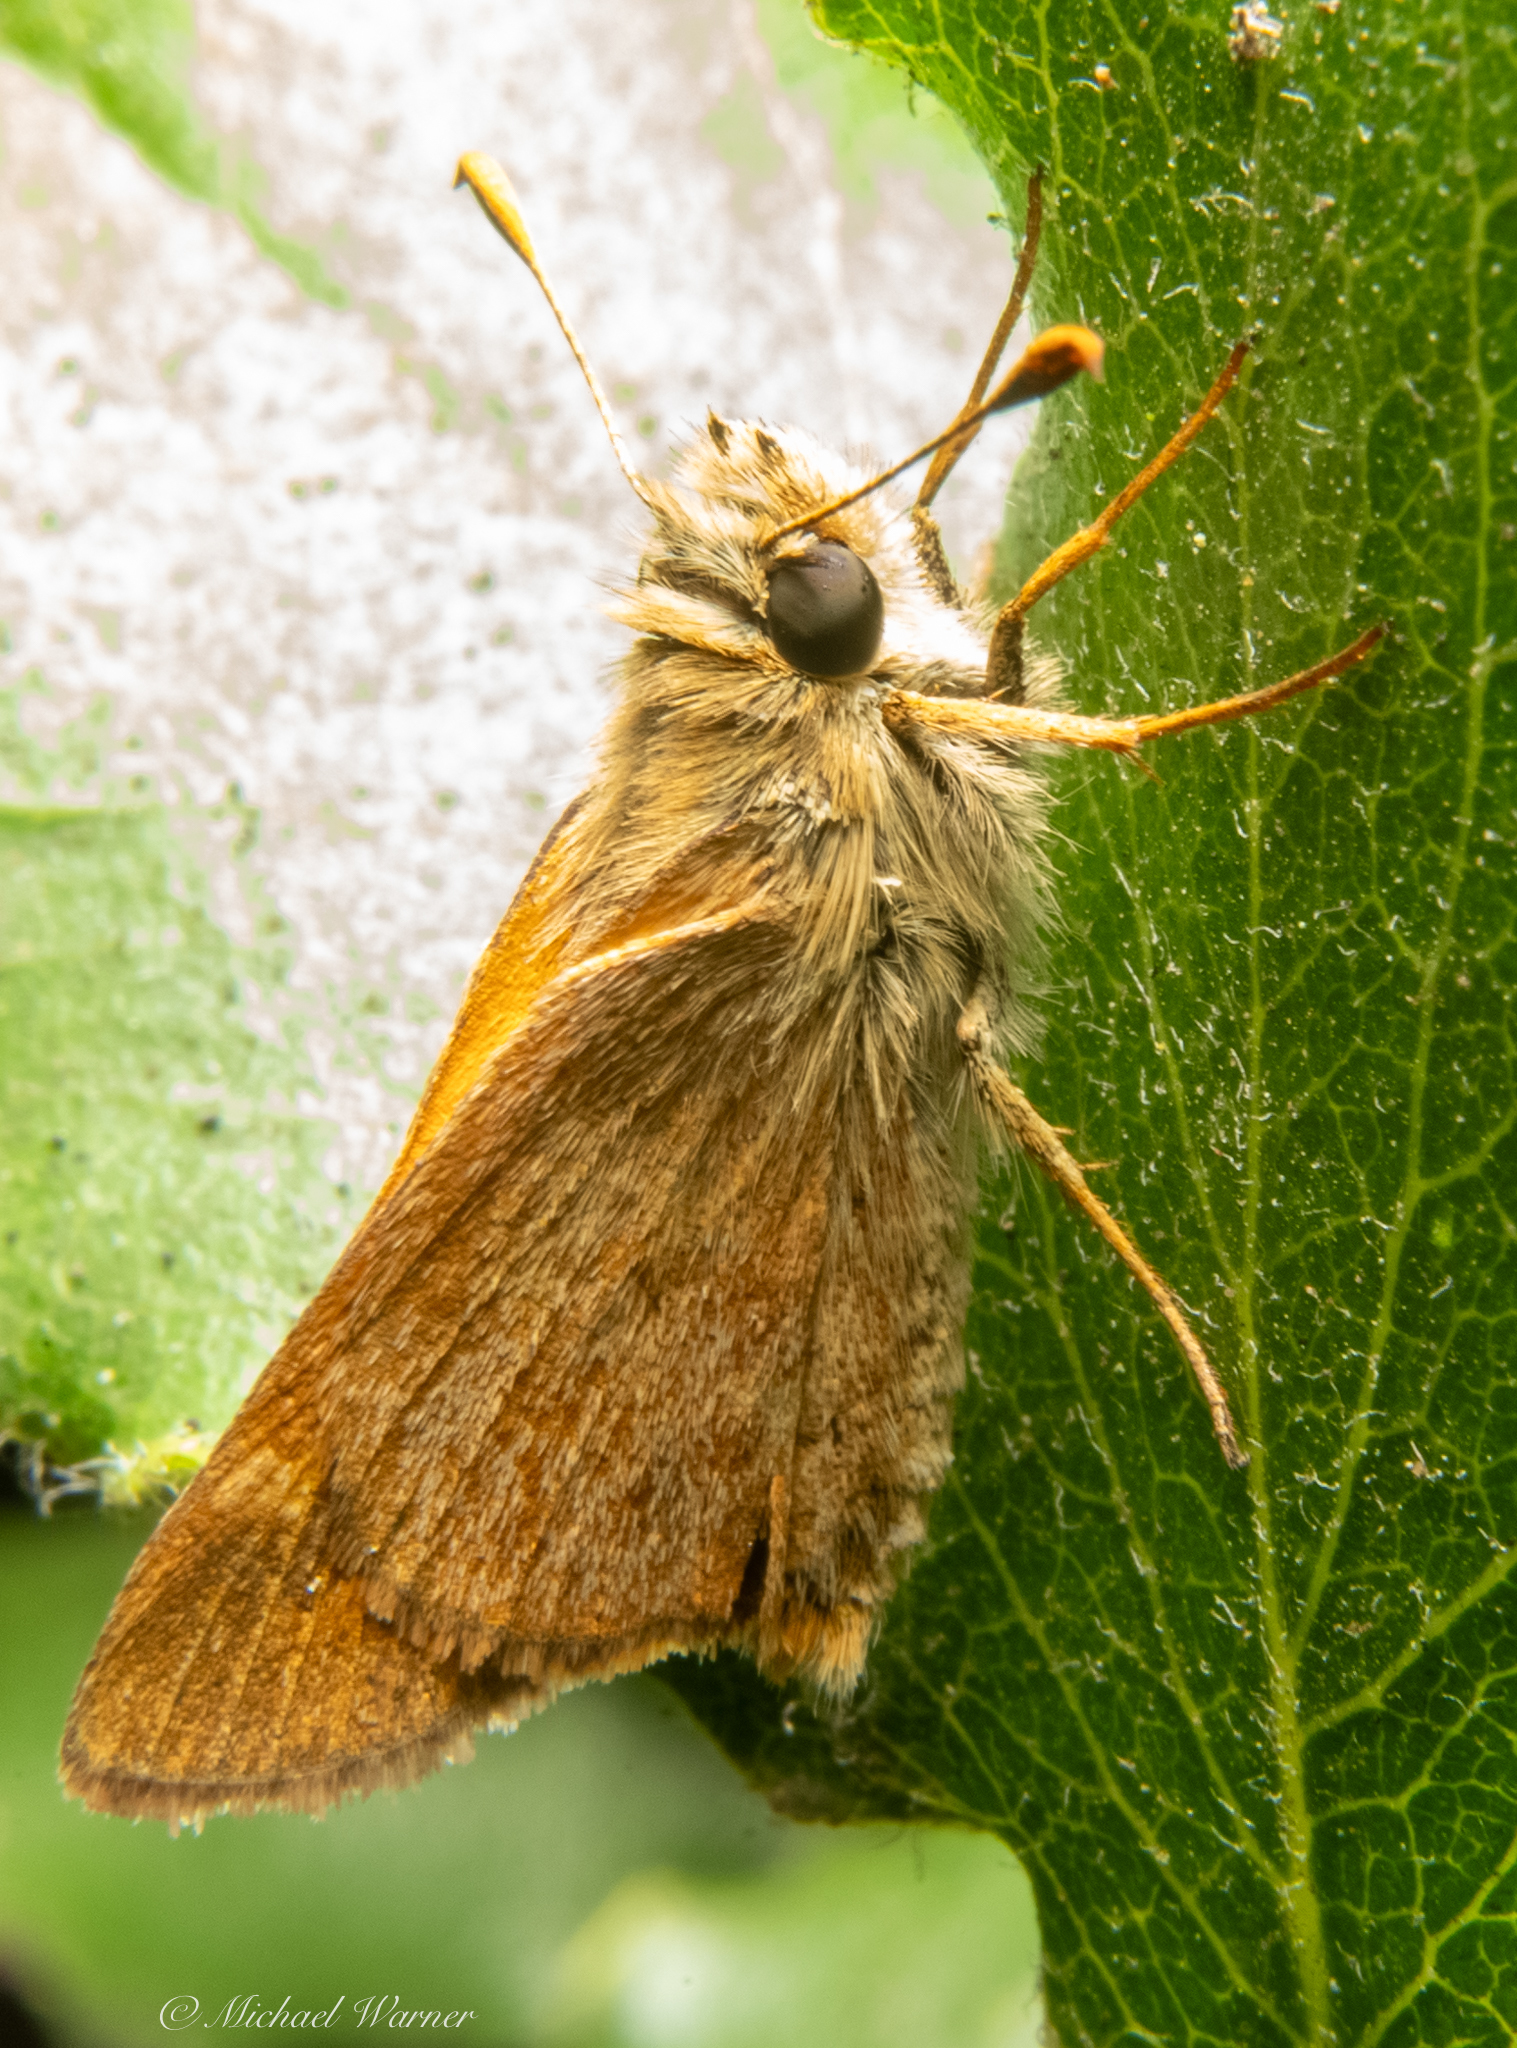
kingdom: Animalia
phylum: Arthropoda
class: Insecta
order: Lepidoptera
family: Hesperiidae
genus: Ochlodes
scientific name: Ochlodes sylvanoides
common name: Woodland skipper
